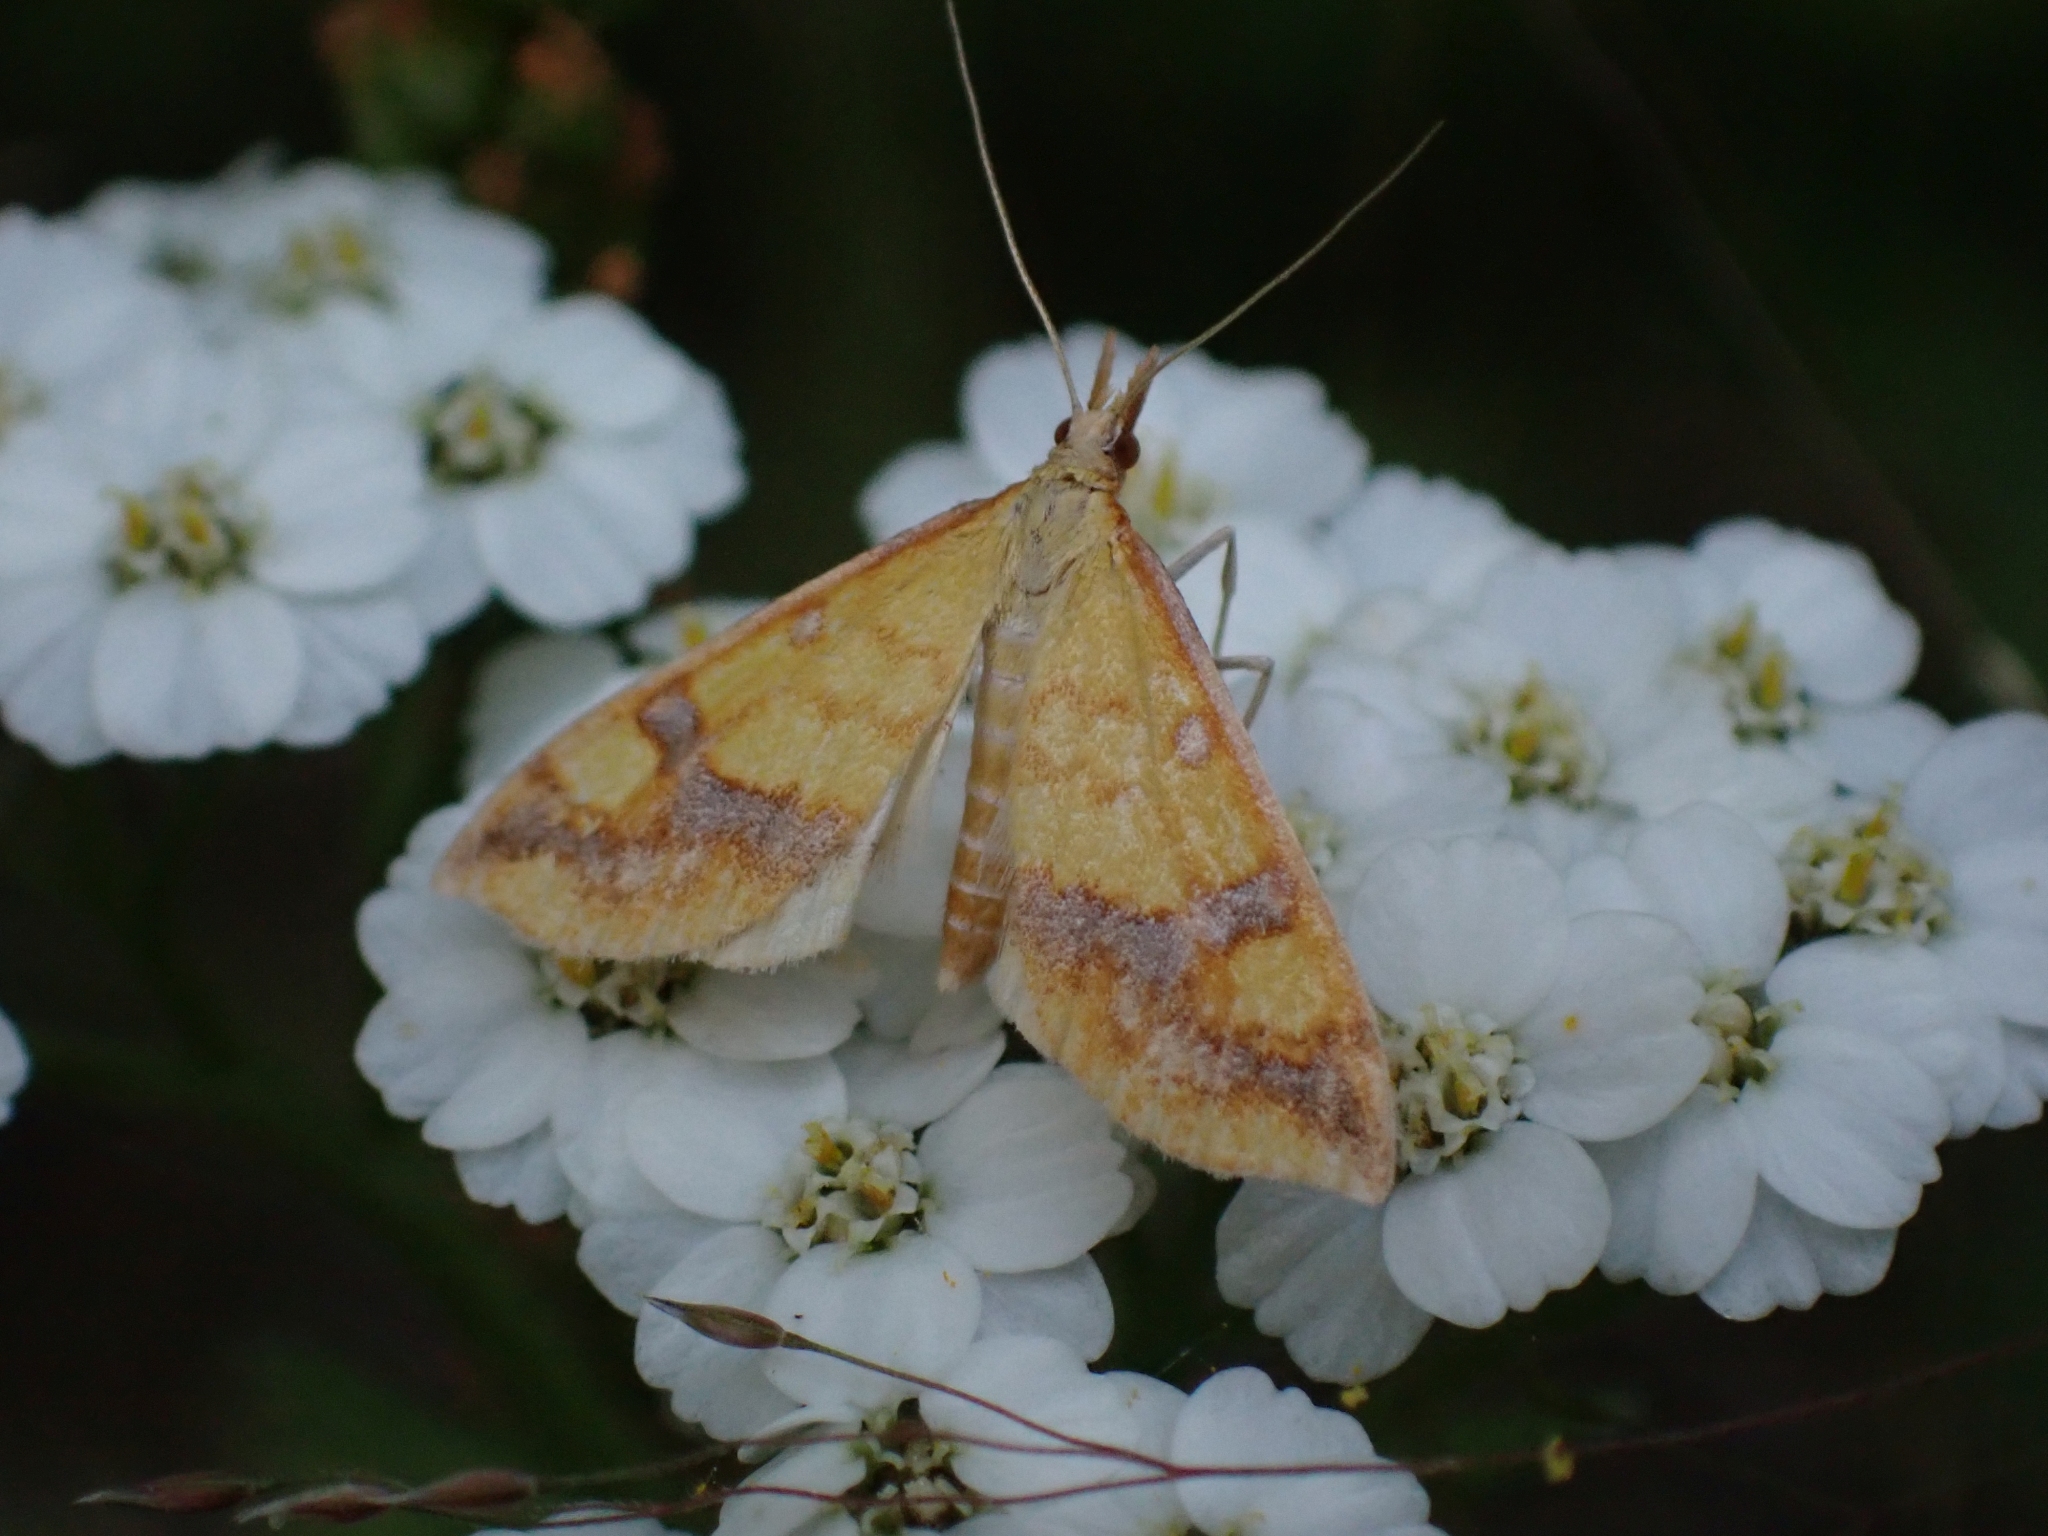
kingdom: Animalia
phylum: Arthropoda
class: Insecta
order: Lepidoptera
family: Crambidae
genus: Choristostigma
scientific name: Choristostigma plumbosignalis
